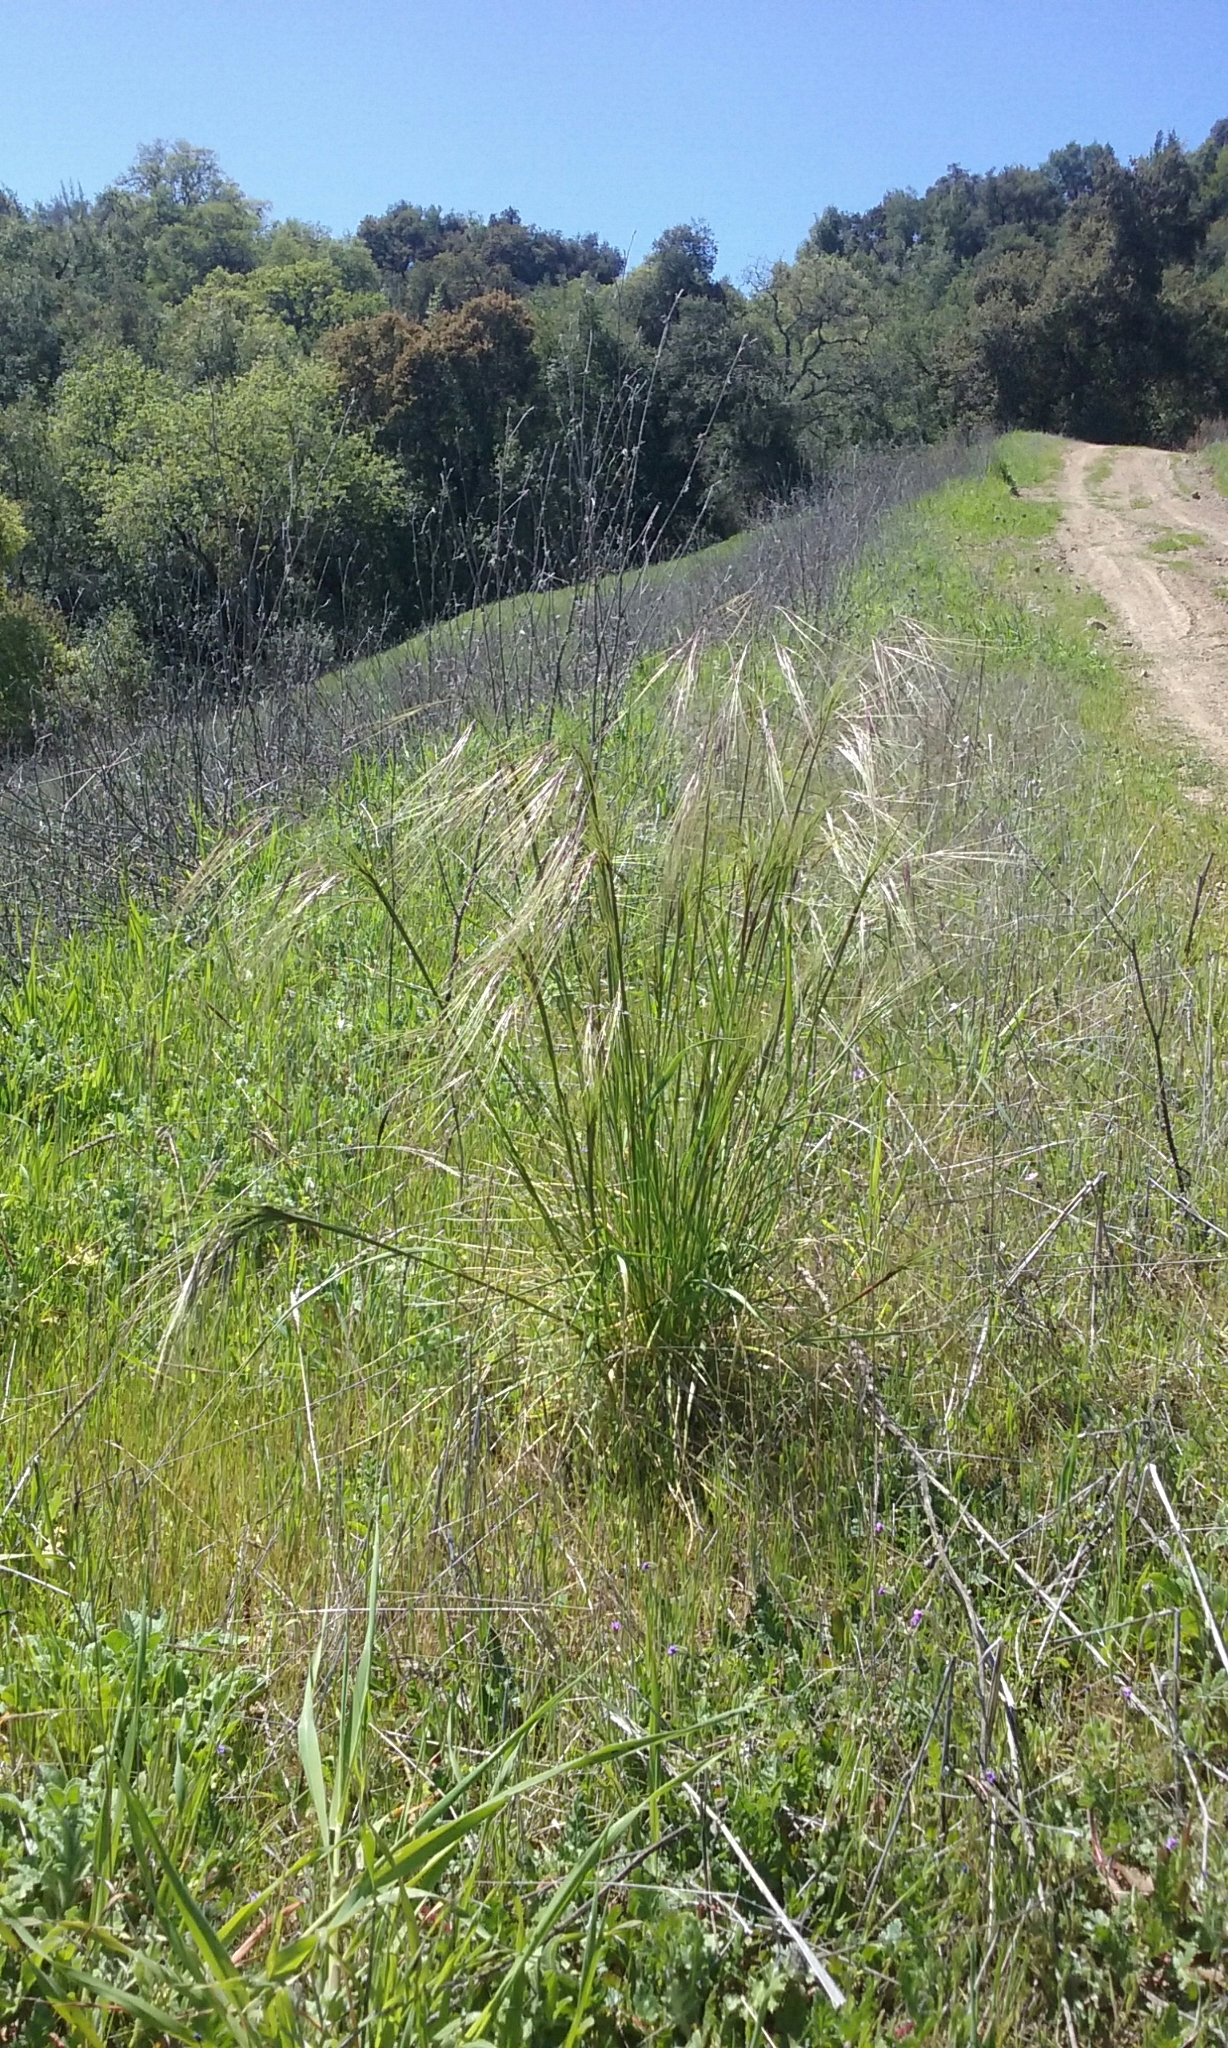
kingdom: Plantae
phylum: Tracheophyta
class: Liliopsida
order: Poales
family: Poaceae
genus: Nassella
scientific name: Nassella pulchra
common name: Purple needlegrass
